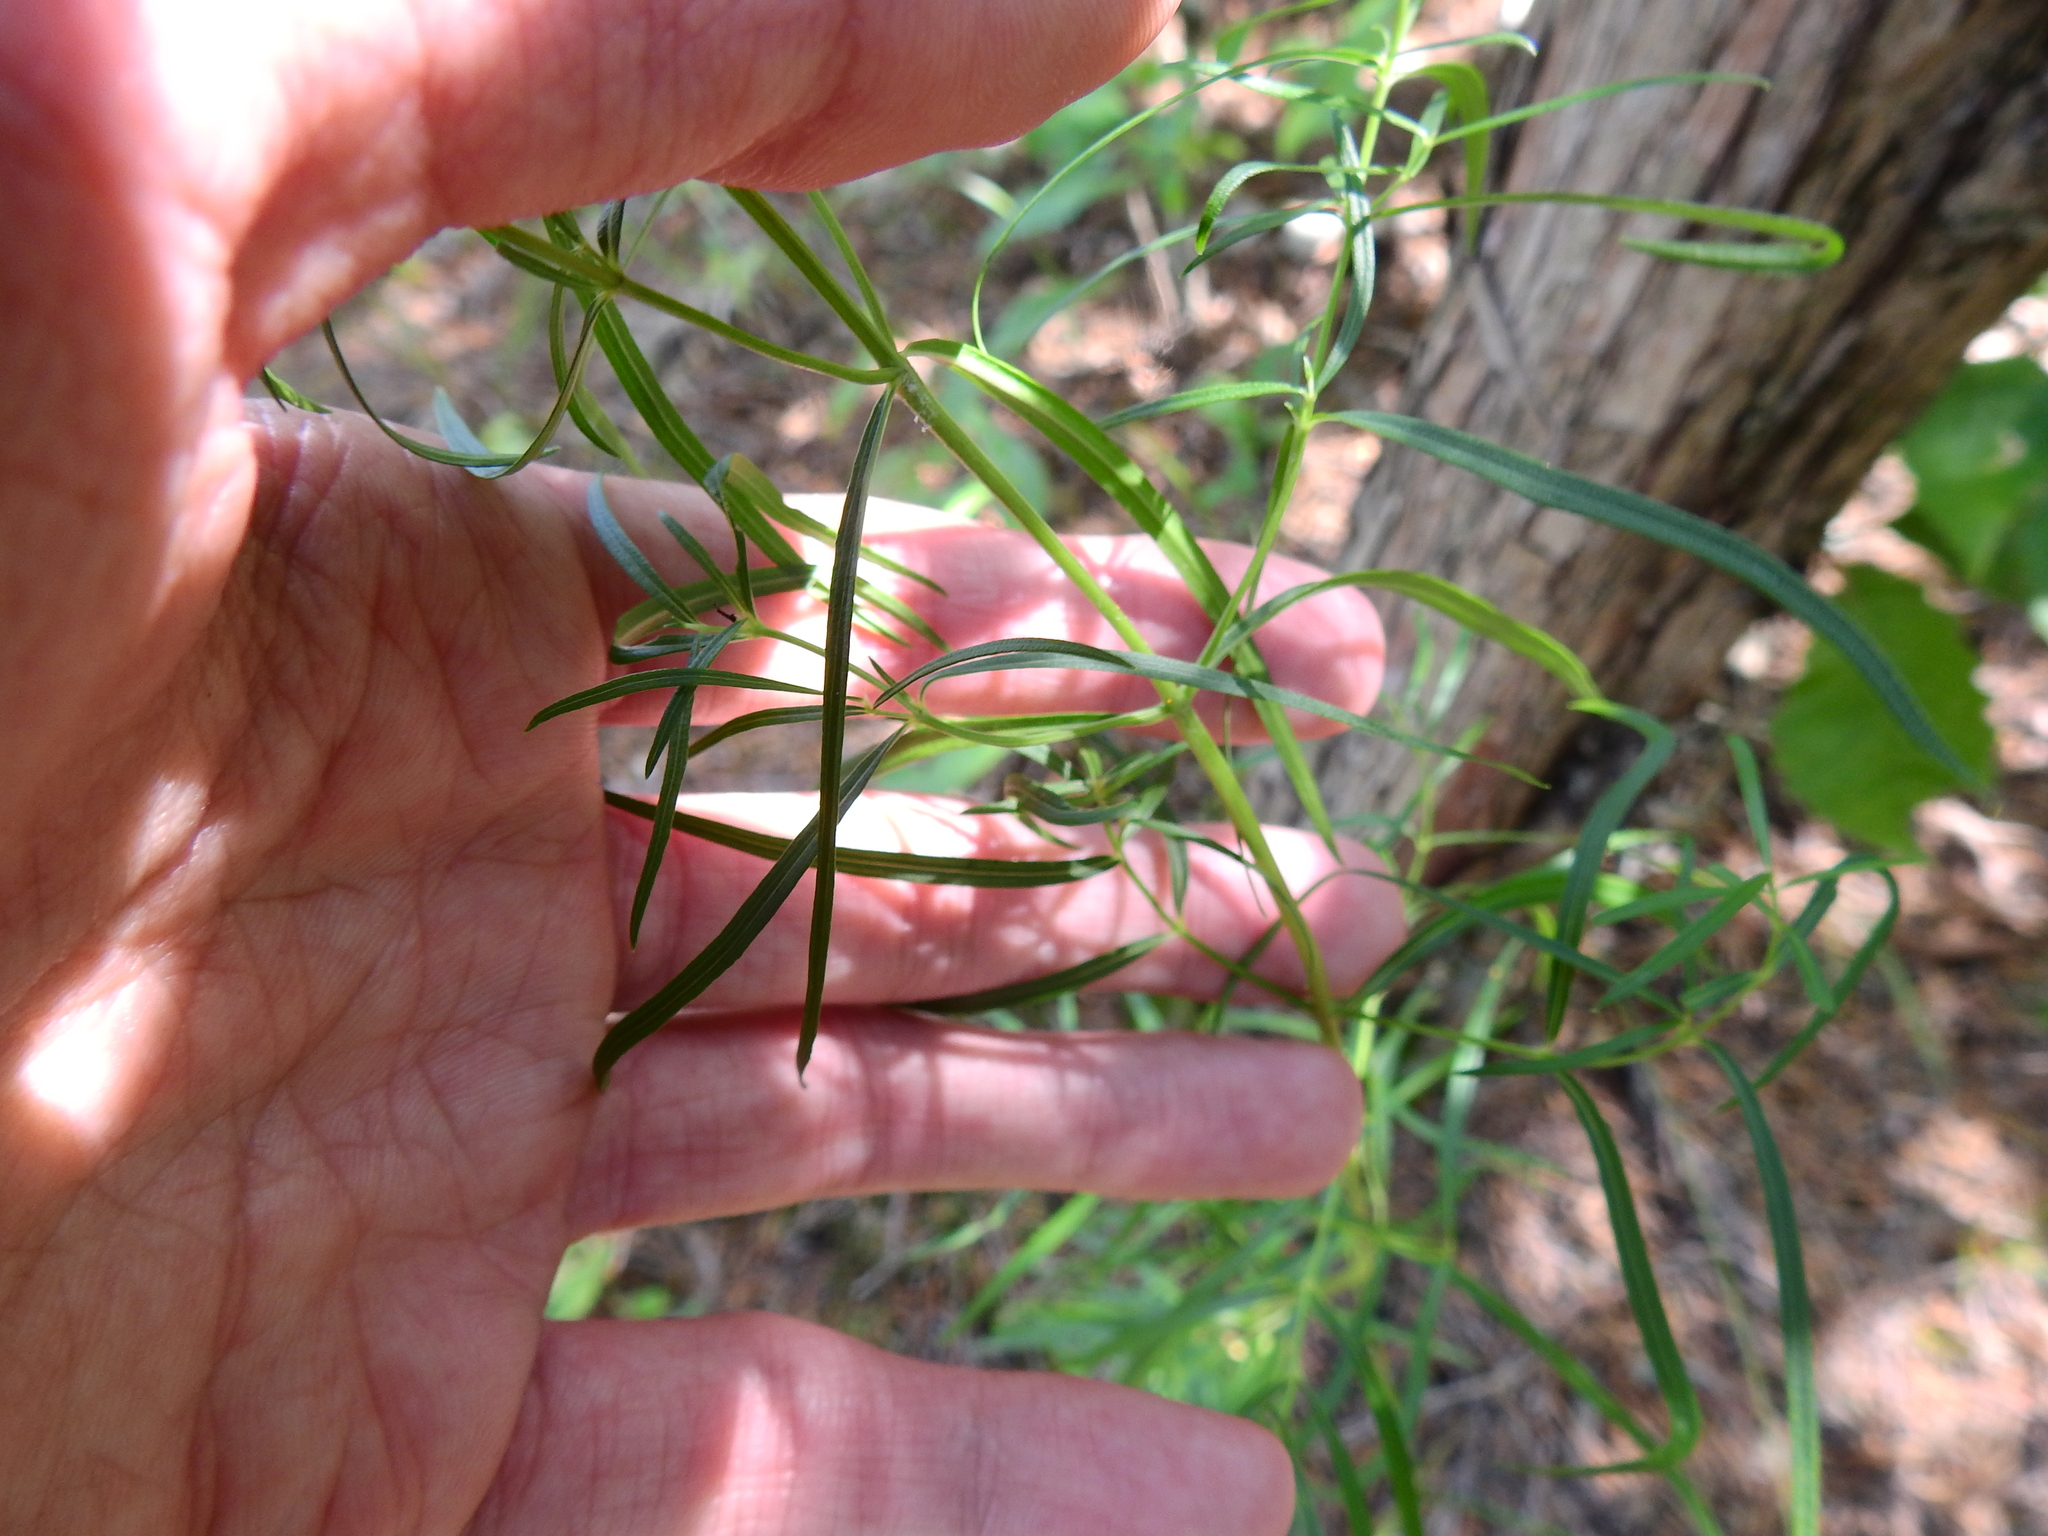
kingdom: Plantae
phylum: Tracheophyta
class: Magnoliopsida
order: Lamiales
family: Lamiaceae
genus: Pycnanthemum
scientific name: Pycnanthemum tenuifolium
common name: Narrow-leaf mountain-mint
